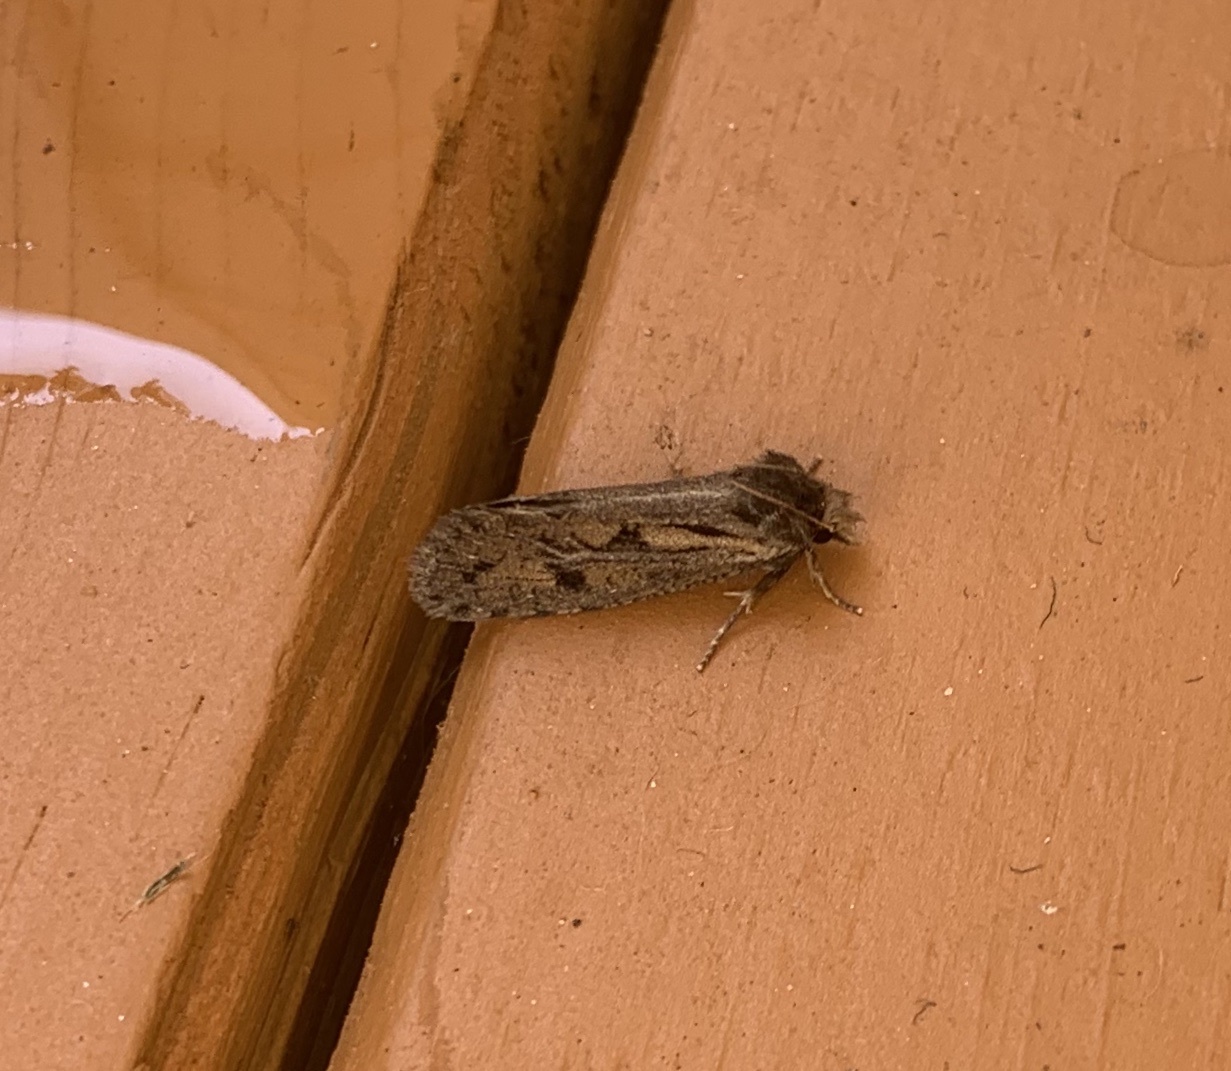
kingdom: Animalia
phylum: Arthropoda
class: Insecta
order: Lepidoptera
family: Tineidae
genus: Acrolophus
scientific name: Acrolophus popeanella
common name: Clemens' grass tubeworm moth
